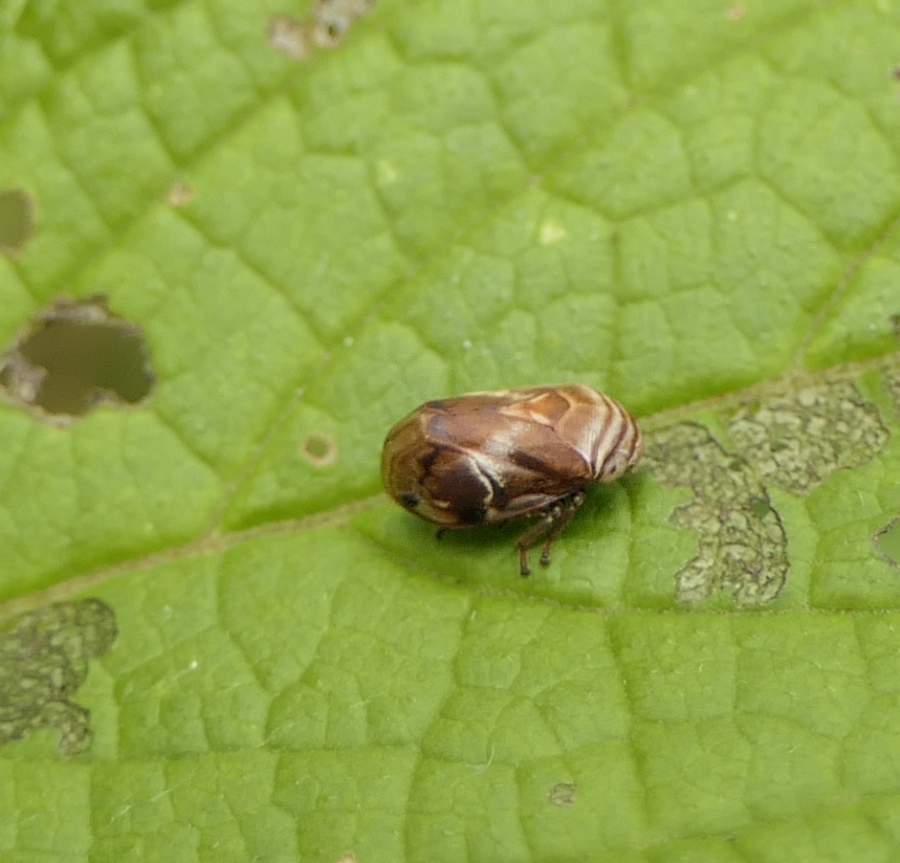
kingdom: Animalia
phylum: Arthropoda
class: Insecta
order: Hemiptera
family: Clastopteridae
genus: Clastoptera
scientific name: Clastoptera obtusa
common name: Alder spittlebug
